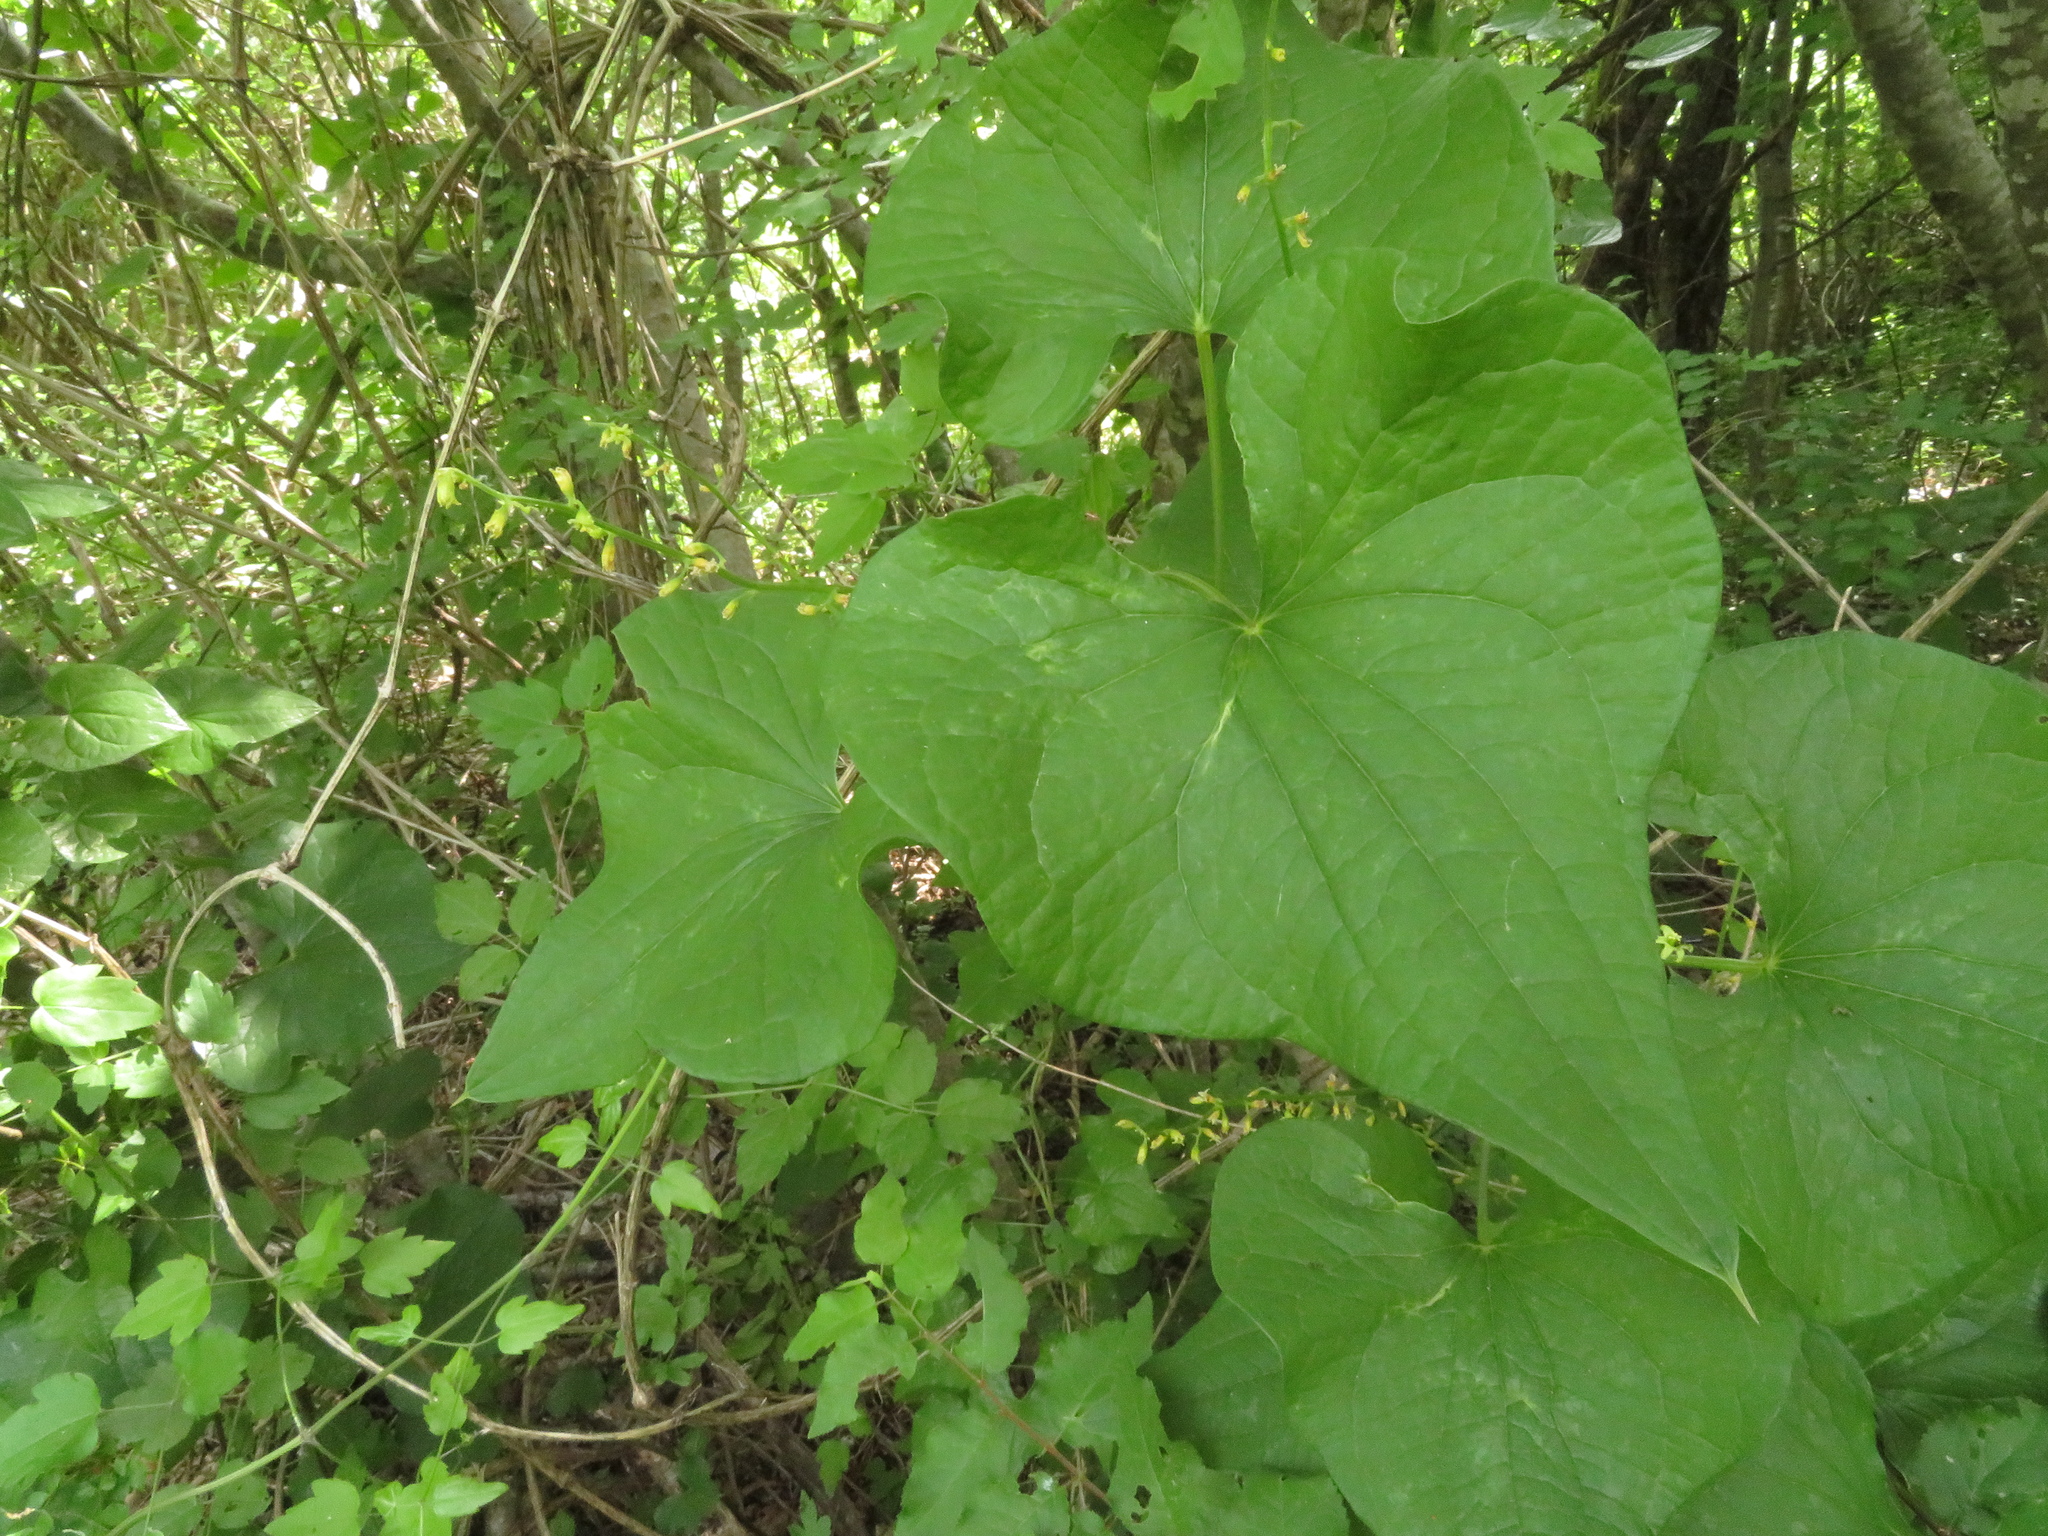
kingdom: Plantae
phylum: Tracheophyta
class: Liliopsida
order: Dioscoreales
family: Dioscoreaceae
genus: Dioscorea
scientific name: Dioscorea communis
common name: Black-bindweed
